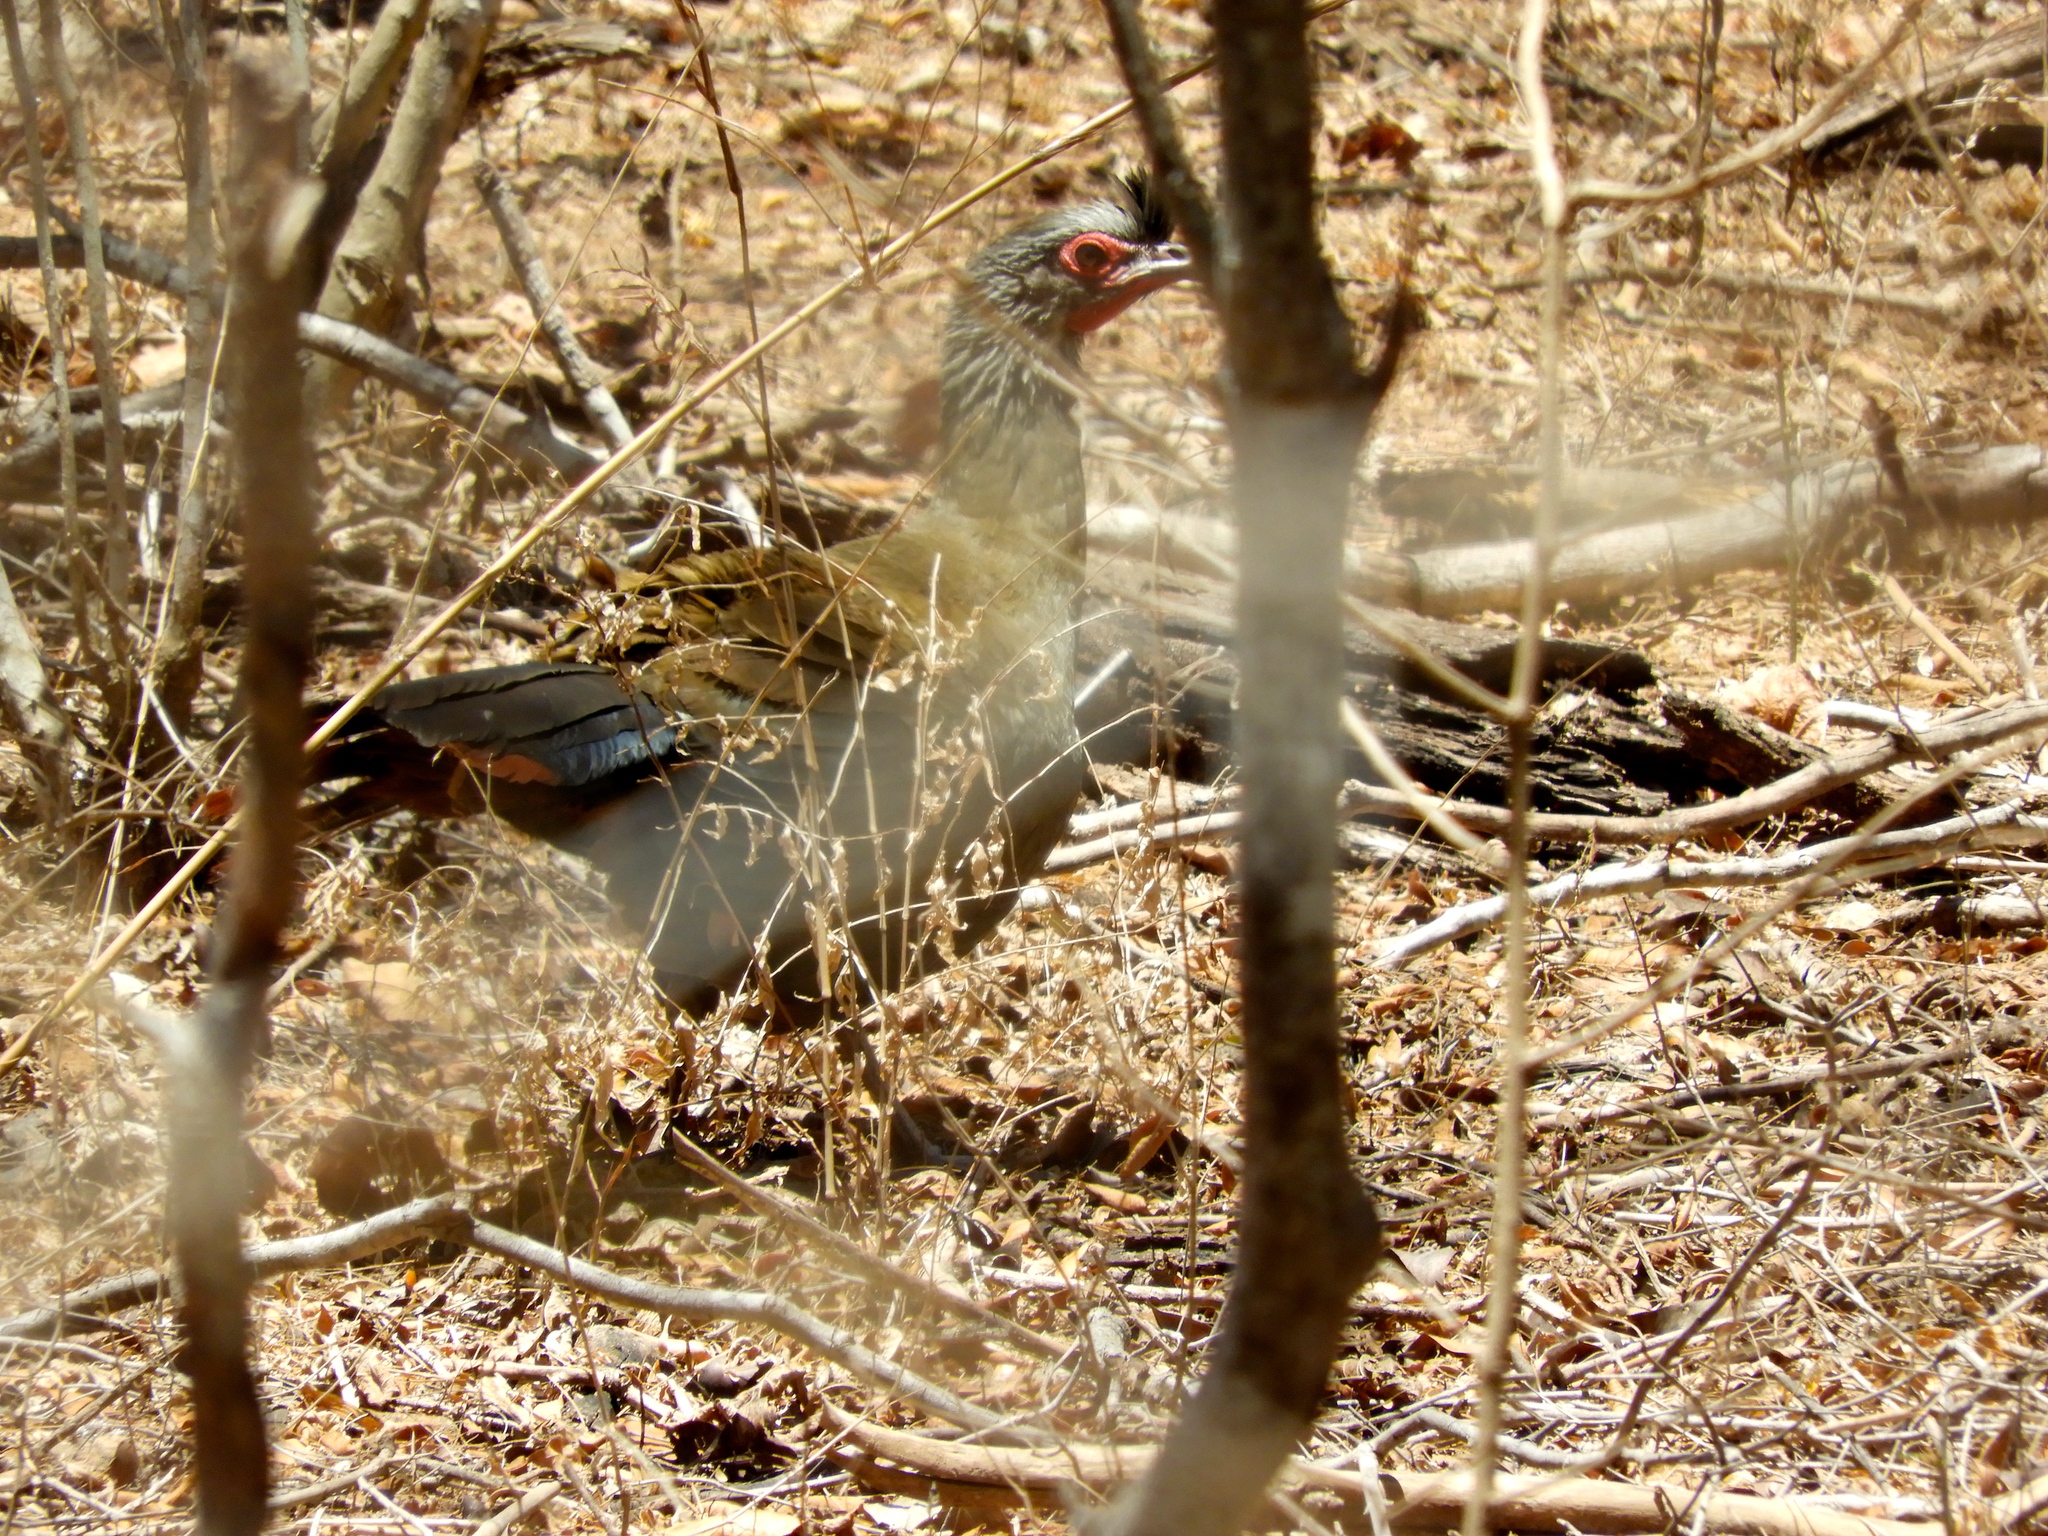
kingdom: Animalia
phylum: Chordata
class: Aves
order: Galliformes
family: Cracidae
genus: Ortalis
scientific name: Ortalis wagleri
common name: Rufous-bellied chachalaca
